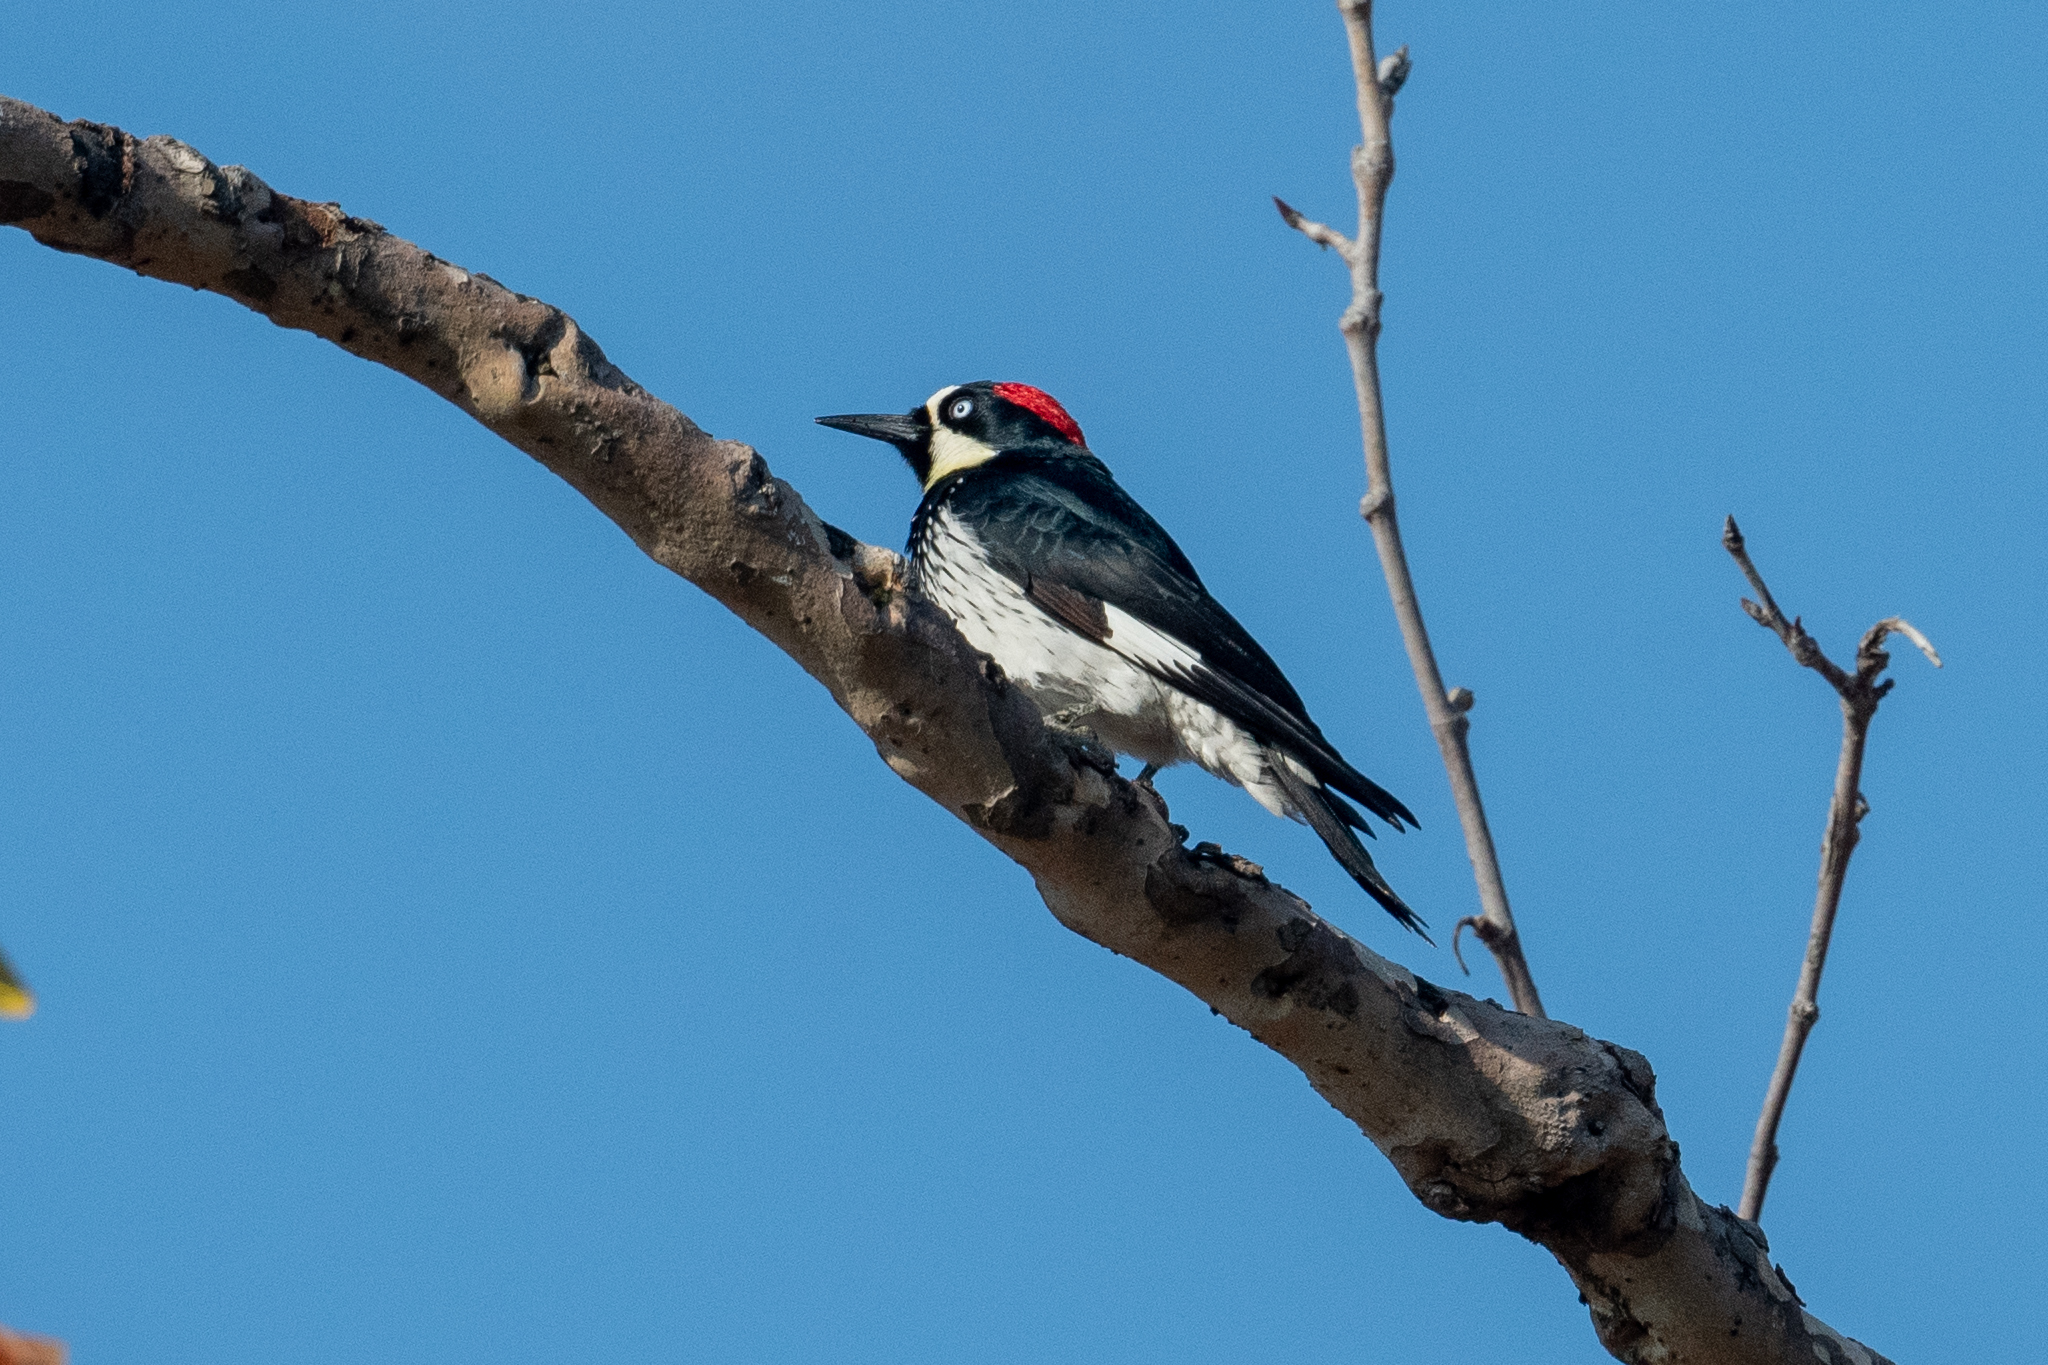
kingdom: Animalia
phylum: Chordata
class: Aves
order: Piciformes
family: Picidae
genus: Melanerpes
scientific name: Melanerpes formicivorus
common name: Acorn woodpecker
